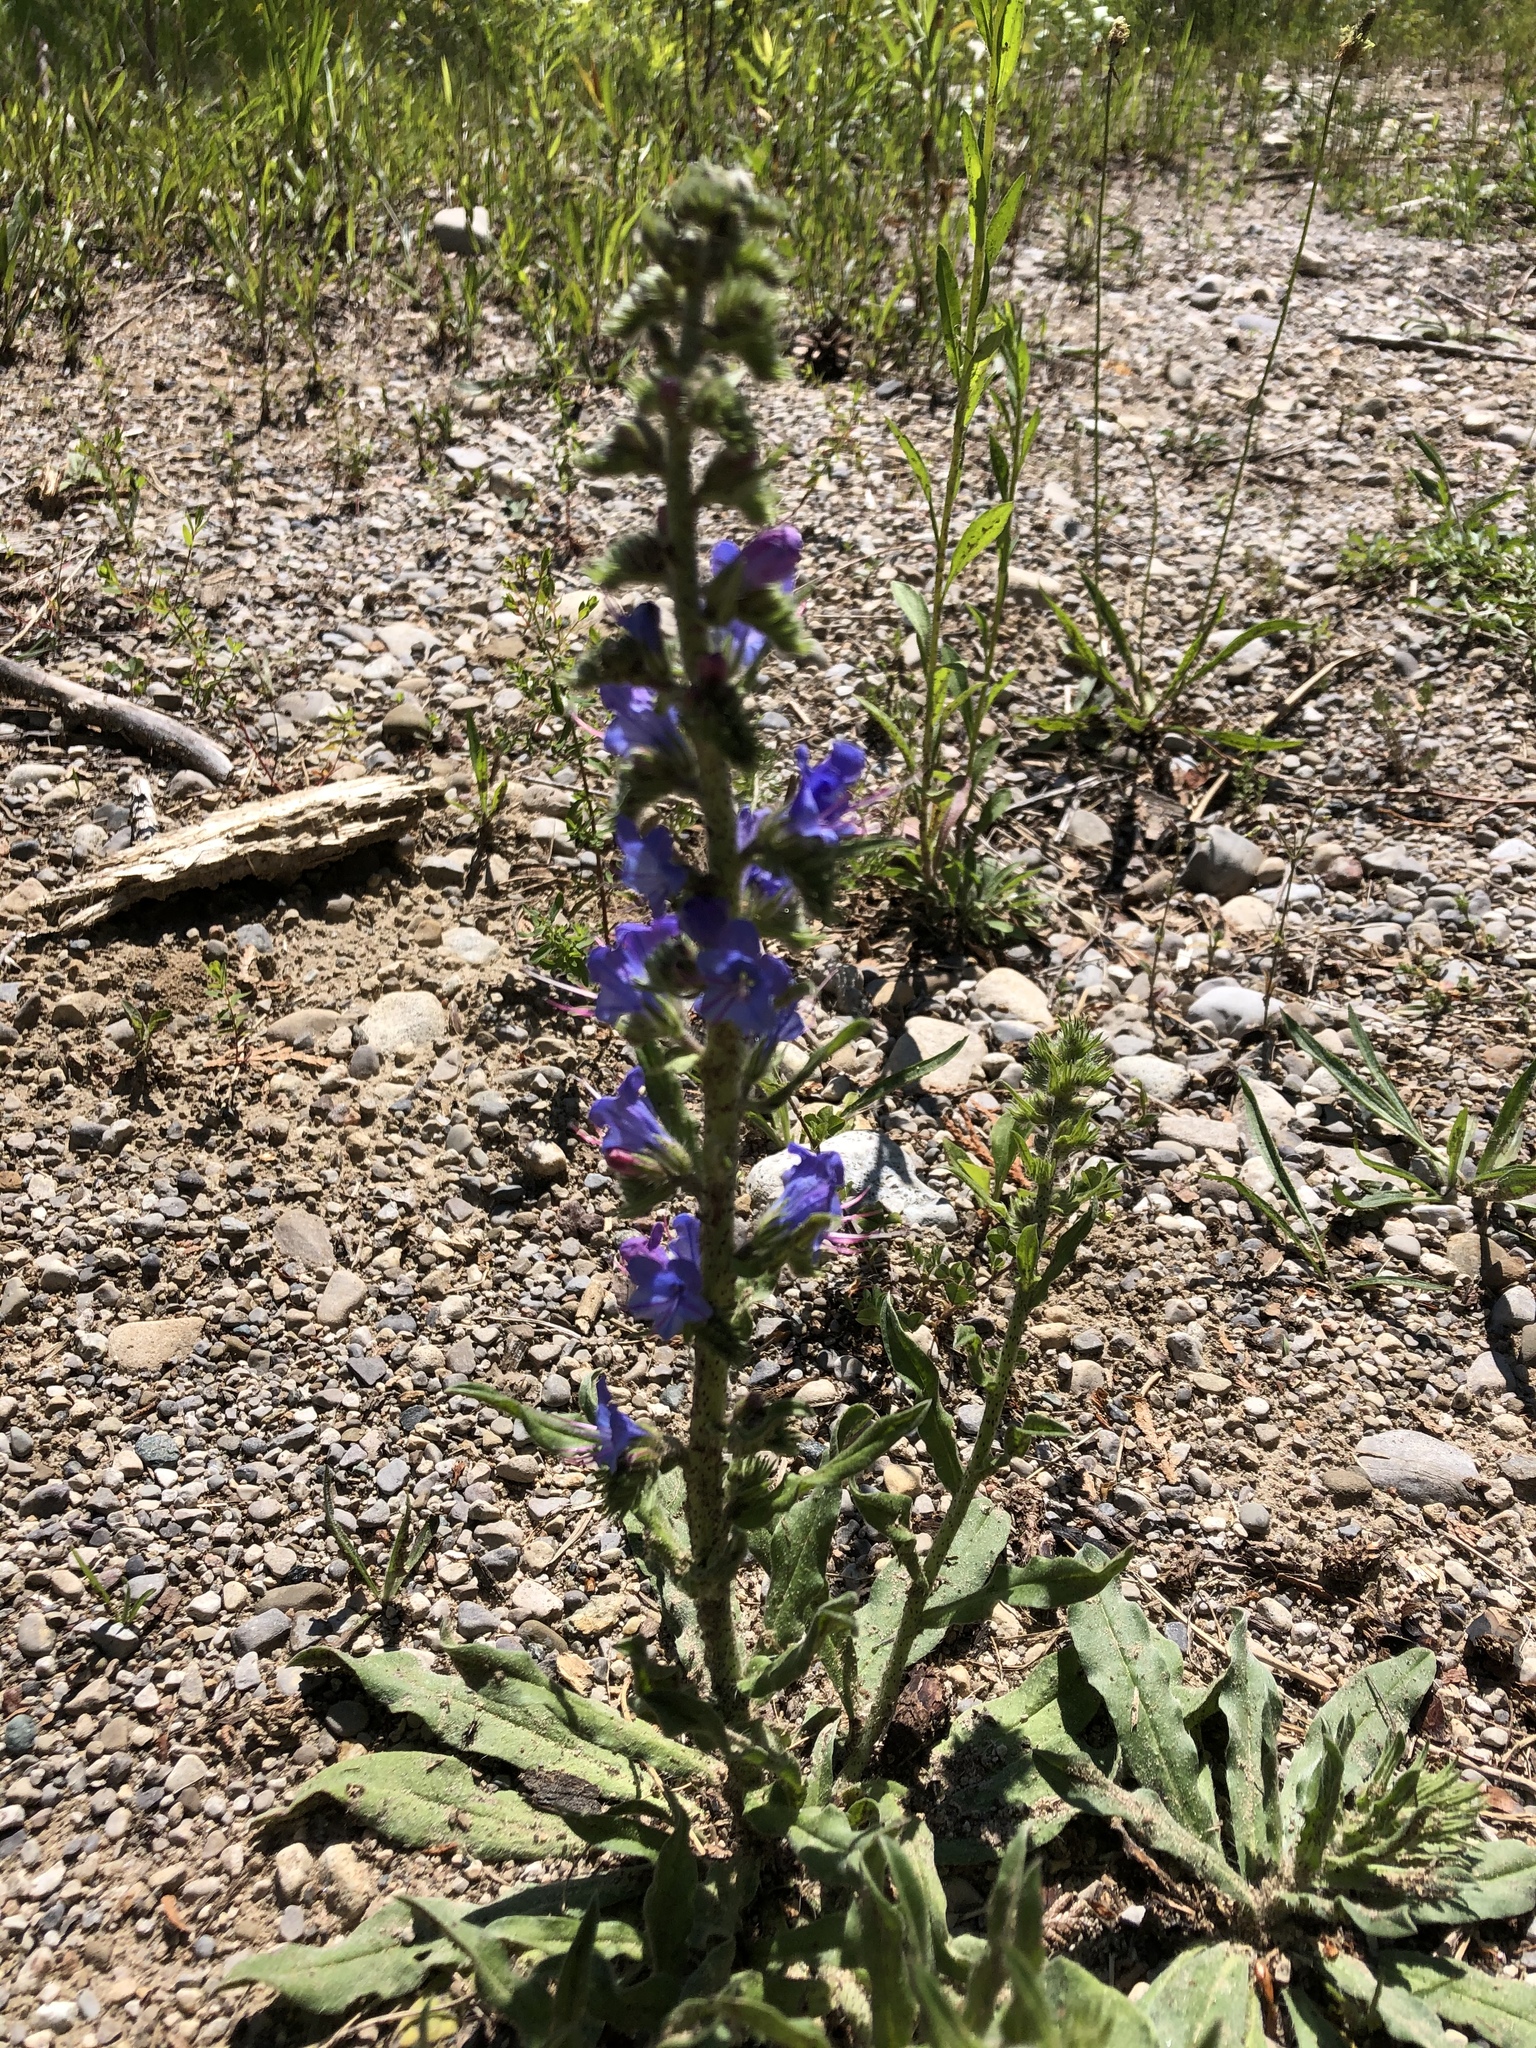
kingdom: Plantae
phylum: Tracheophyta
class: Magnoliopsida
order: Boraginales
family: Boraginaceae
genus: Echium
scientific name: Echium vulgare
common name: Common viper's bugloss
